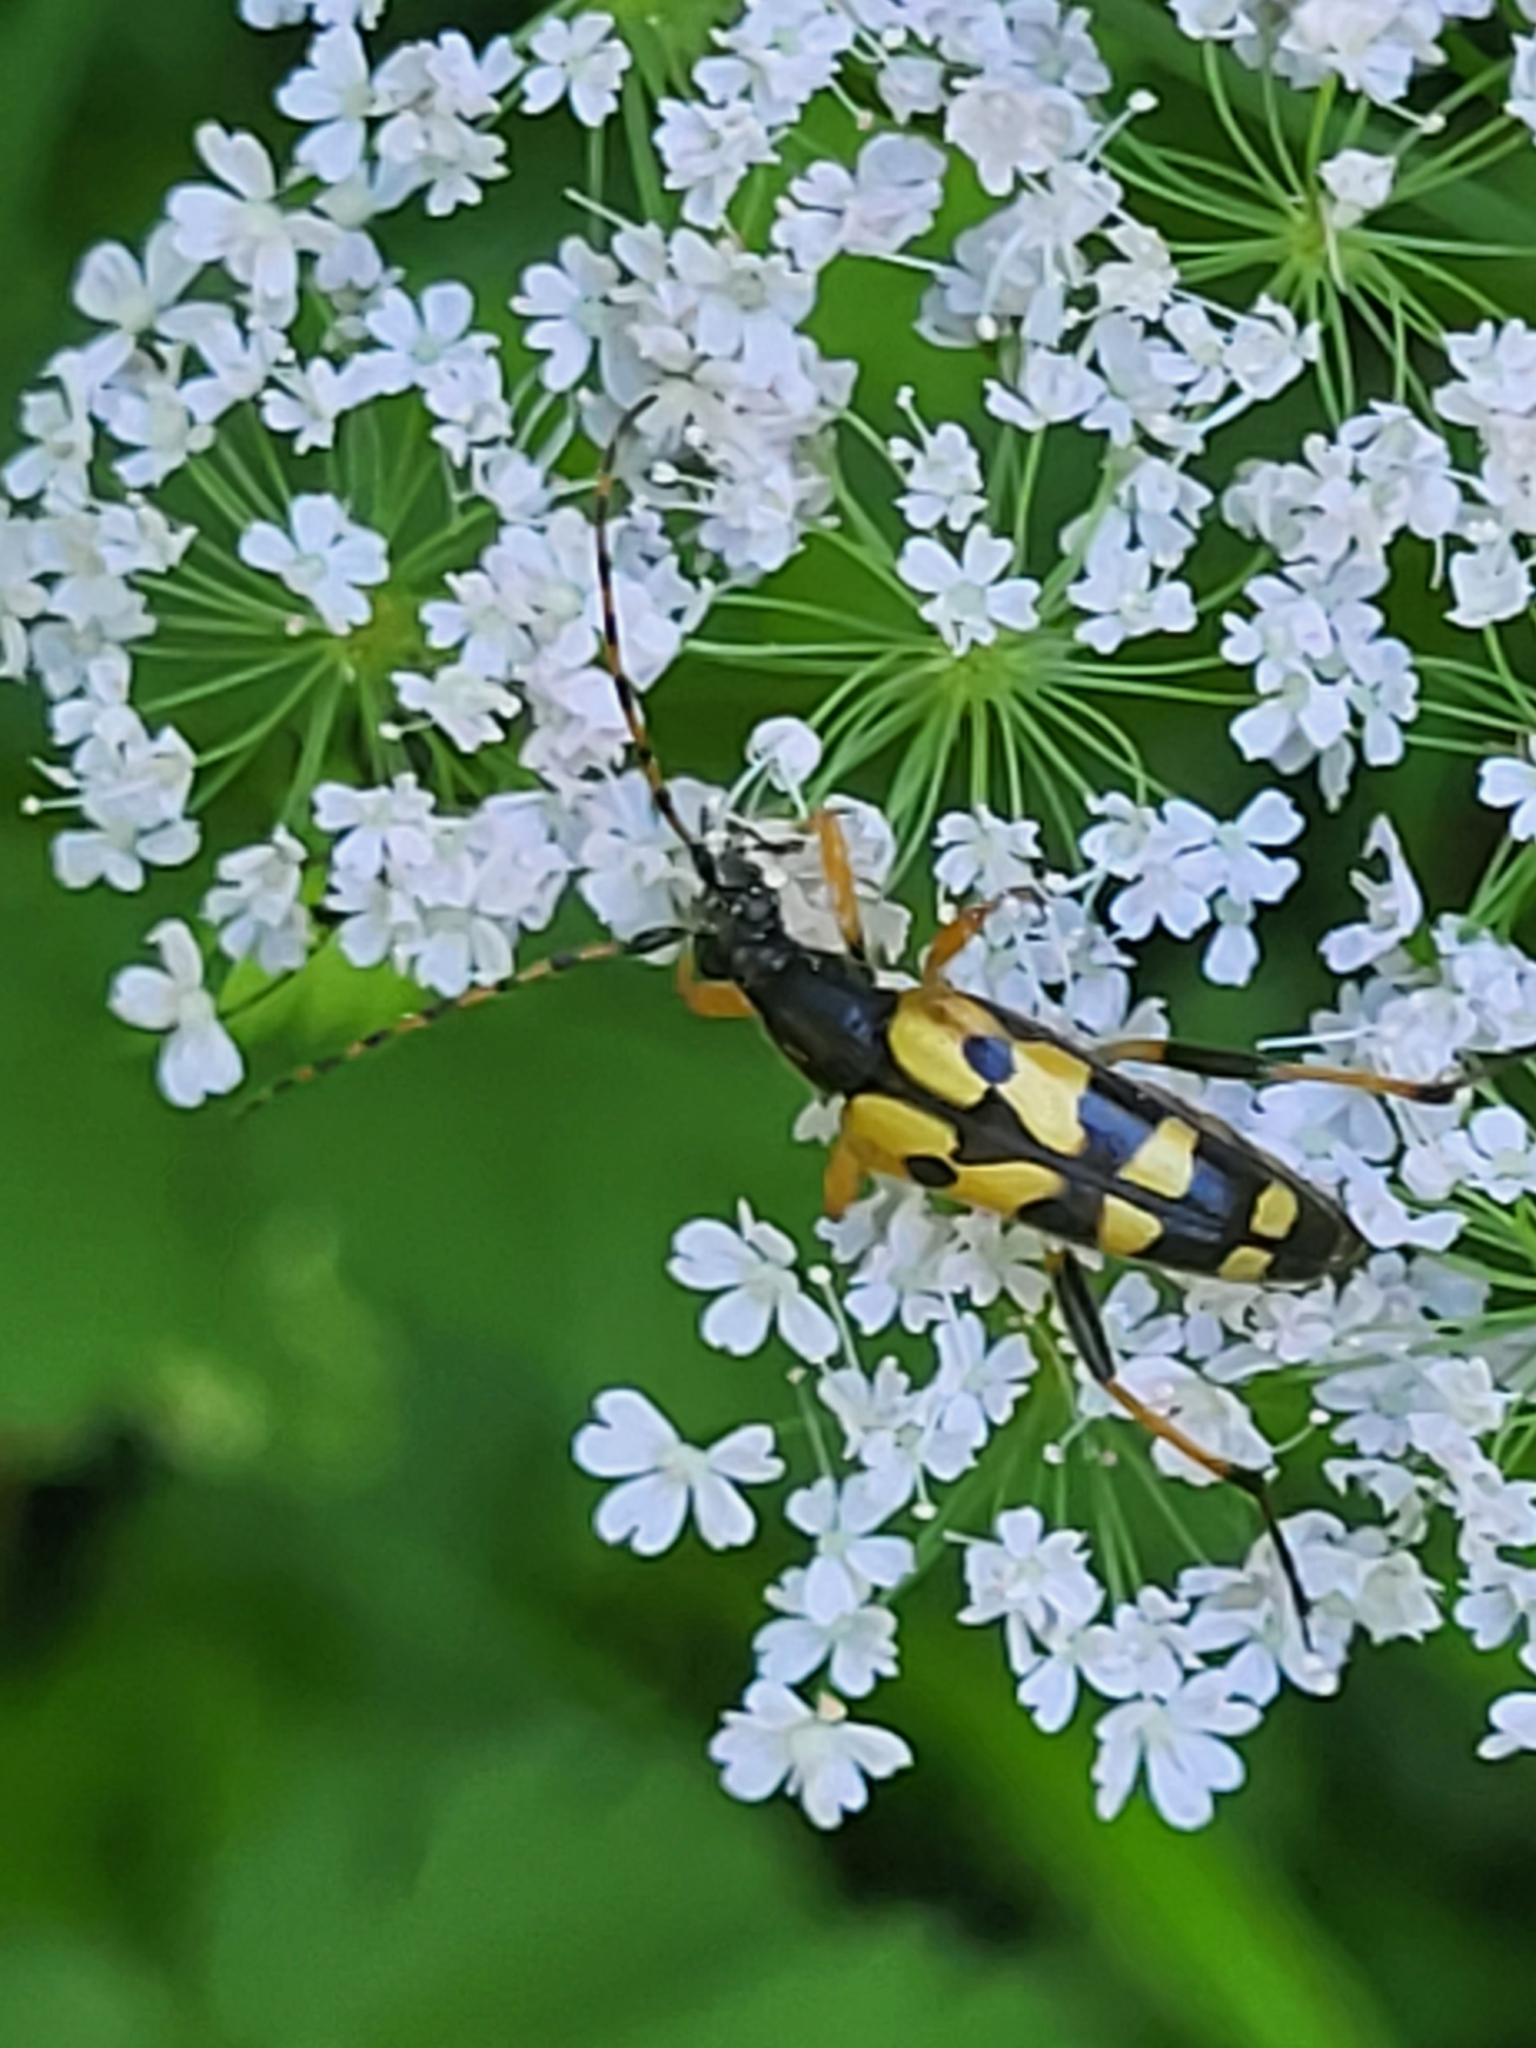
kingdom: Animalia
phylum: Arthropoda
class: Insecta
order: Coleoptera
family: Cerambycidae
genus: Rutpela
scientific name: Rutpela maculata
